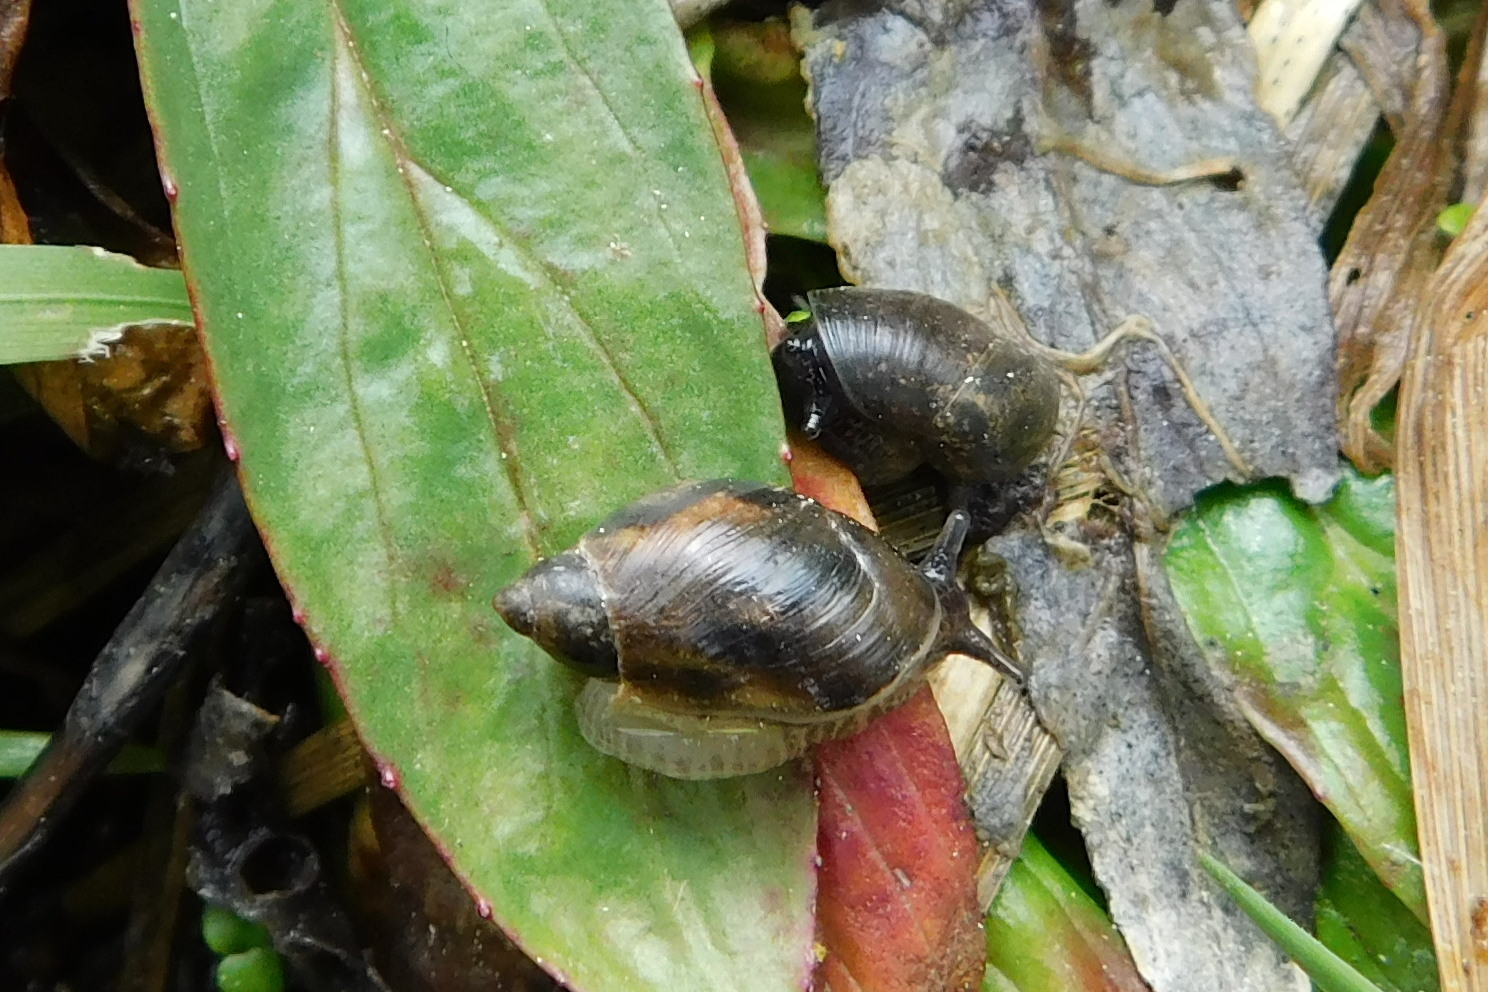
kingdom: Animalia
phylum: Mollusca
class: Gastropoda
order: Stylommatophora
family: Succineidae
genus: Succinea
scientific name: Succinea putris
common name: European ambersnail
